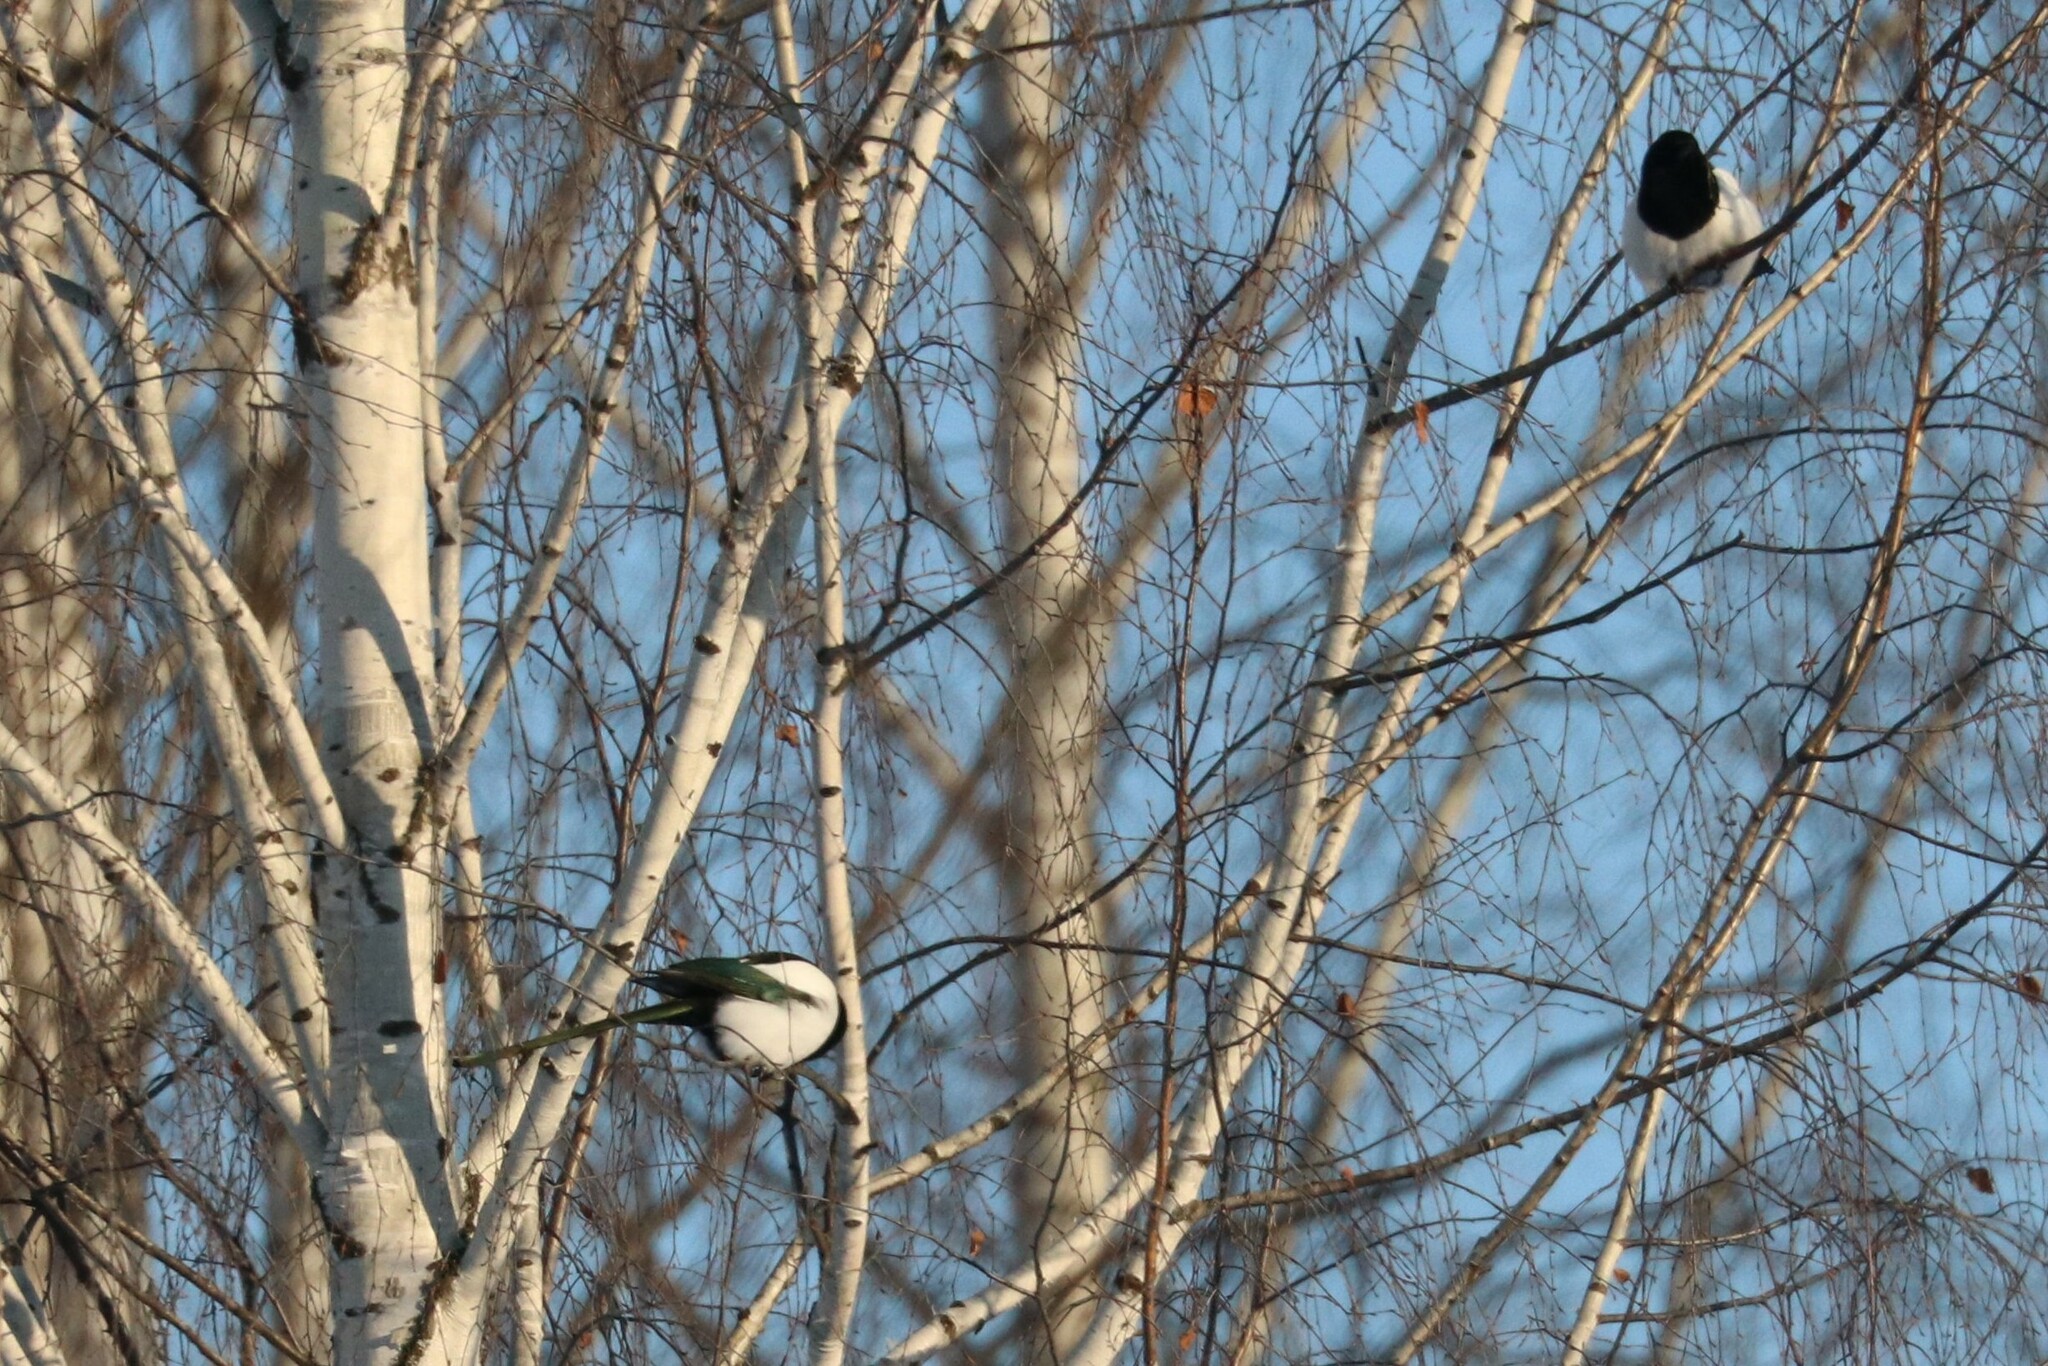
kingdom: Animalia
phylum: Chordata
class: Aves
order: Passeriformes
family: Corvidae
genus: Pica
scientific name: Pica pica
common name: Eurasian magpie
